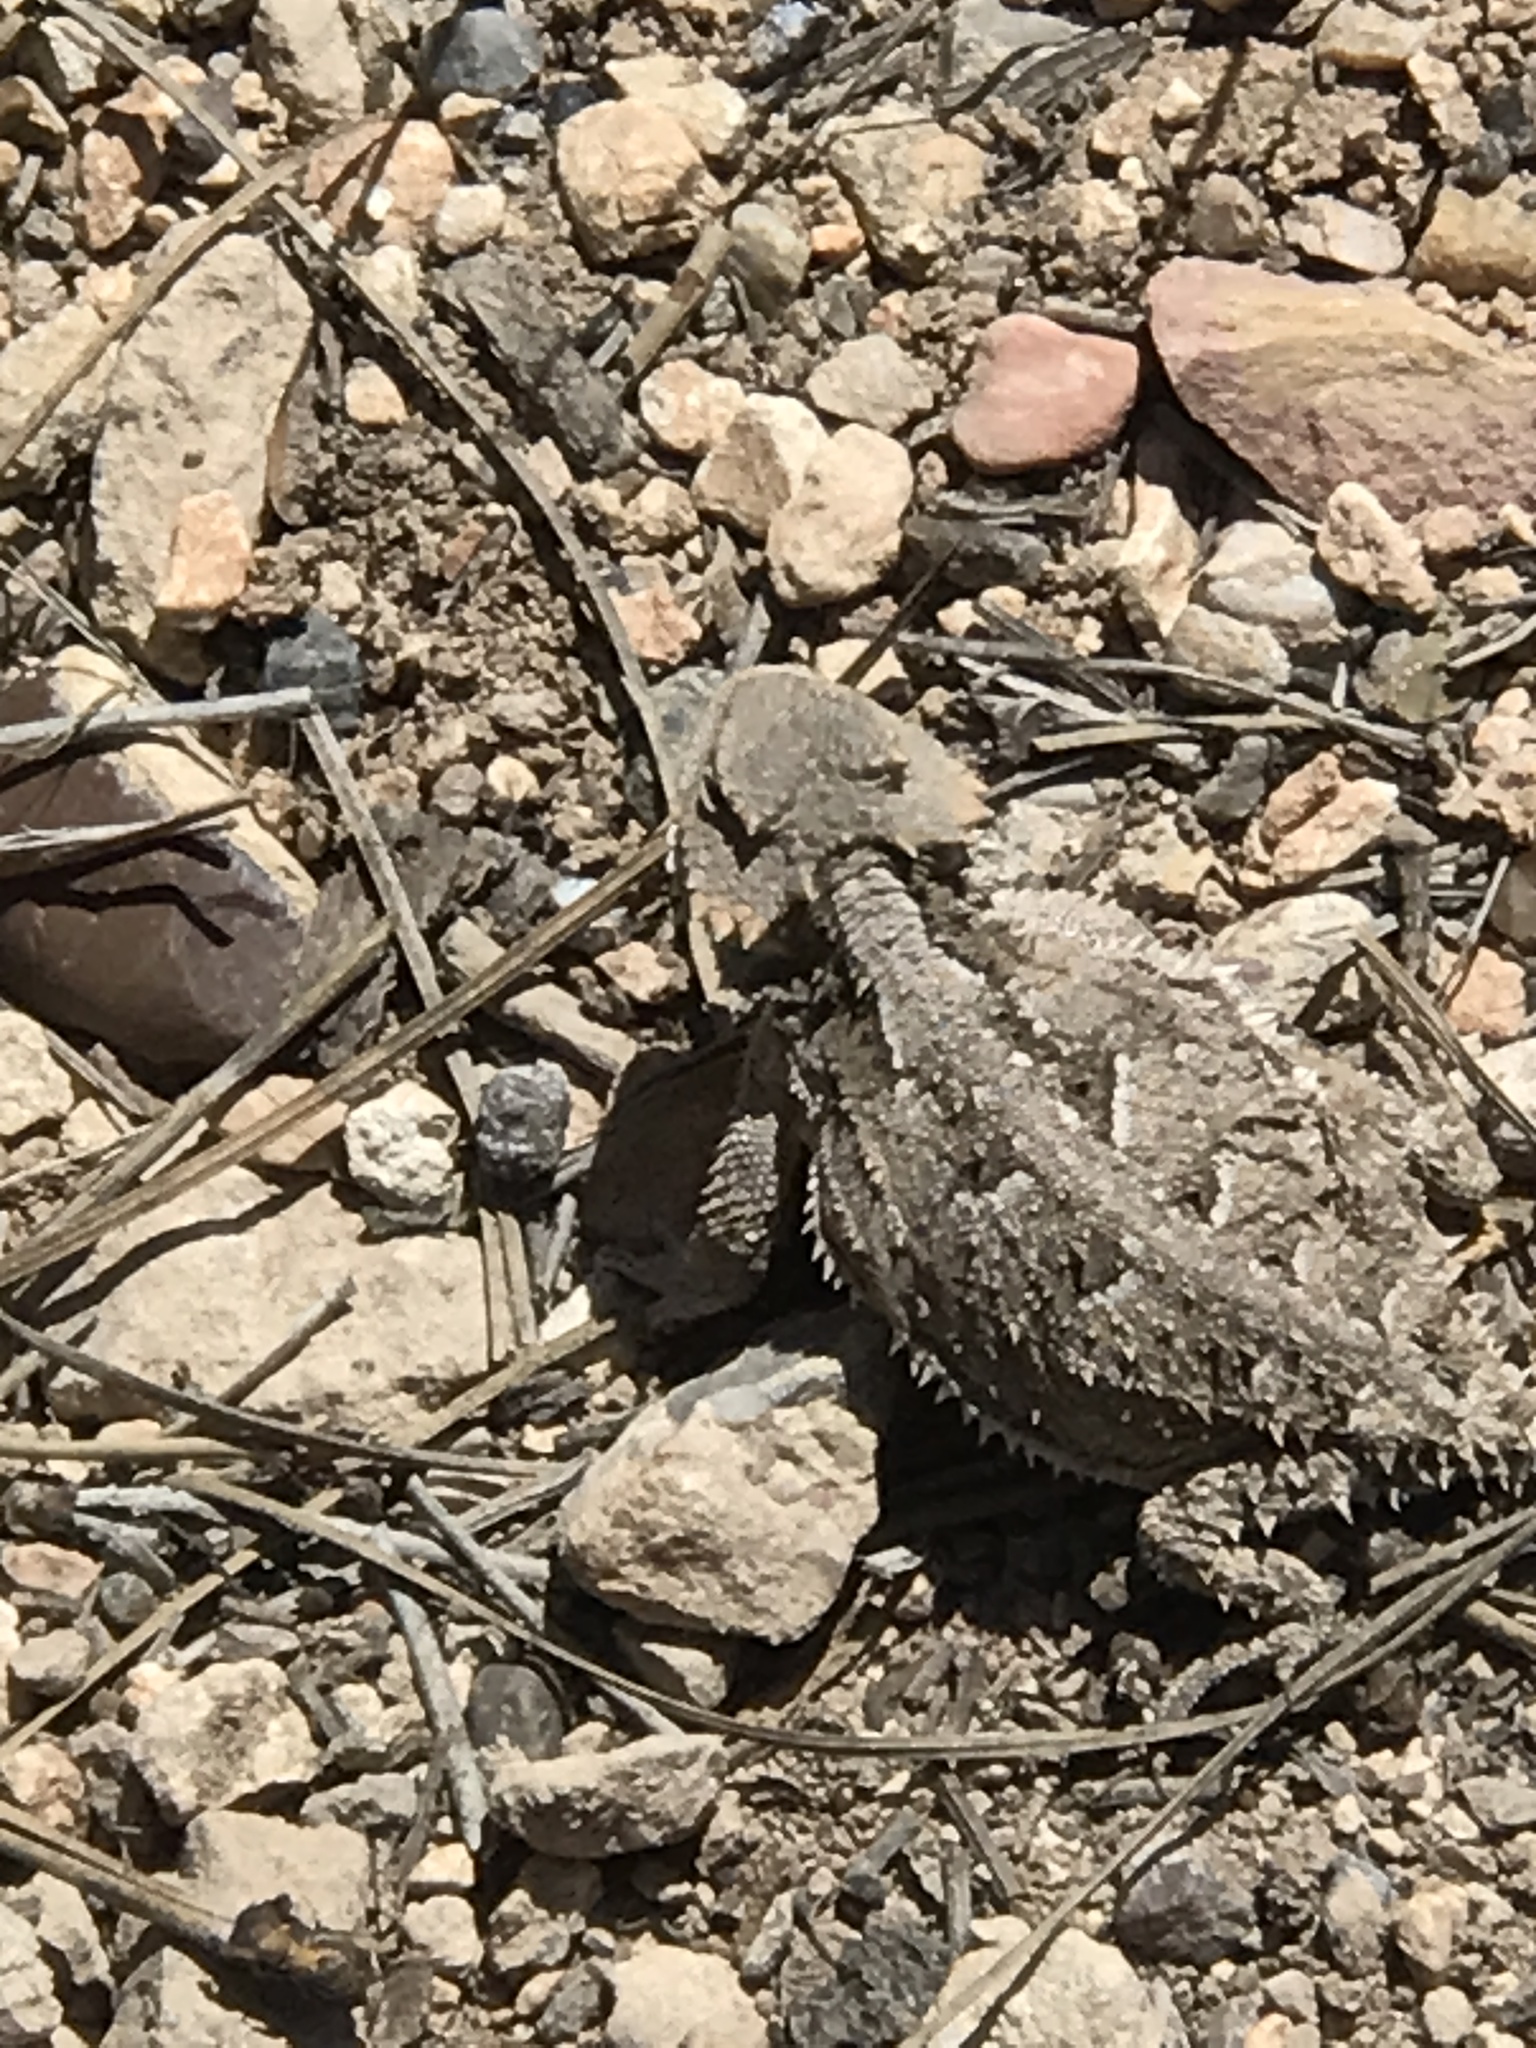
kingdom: Animalia
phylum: Chordata
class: Squamata
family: Phrynosomatidae
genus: Phrynosoma
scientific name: Phrynosoma hernandesi
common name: Greater short-horned lizard
